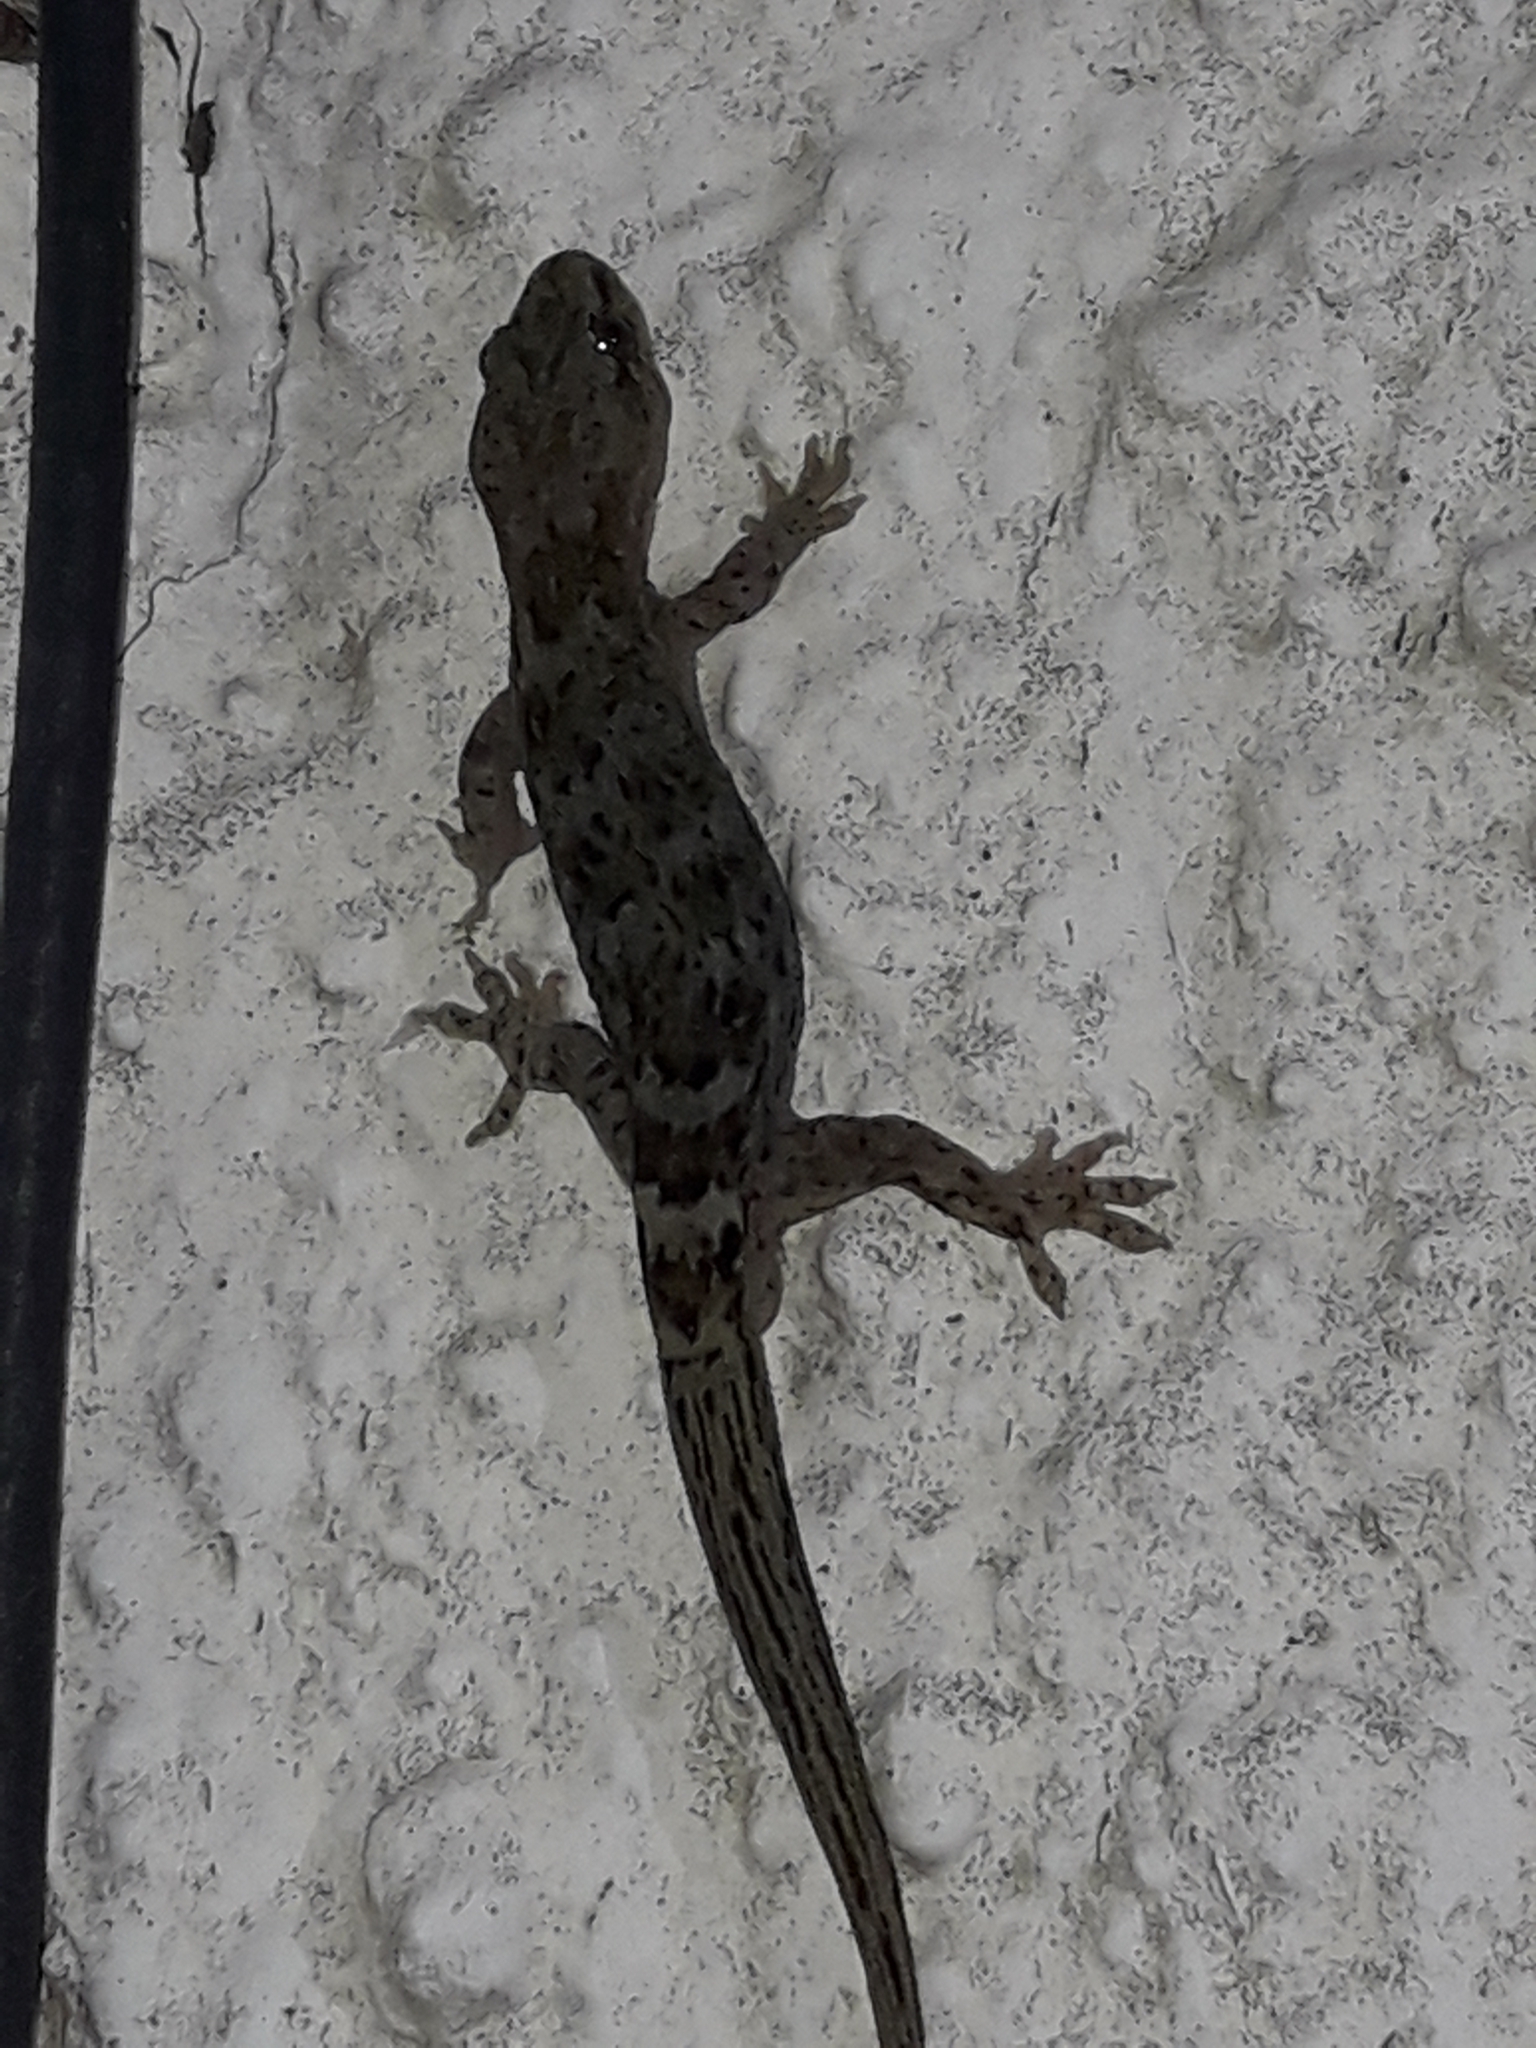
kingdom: Animalia
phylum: Chordata
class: Squamata
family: Diplodactylidae
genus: Woodworthia
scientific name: Woodworthia maculata
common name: Raukawa gecko
